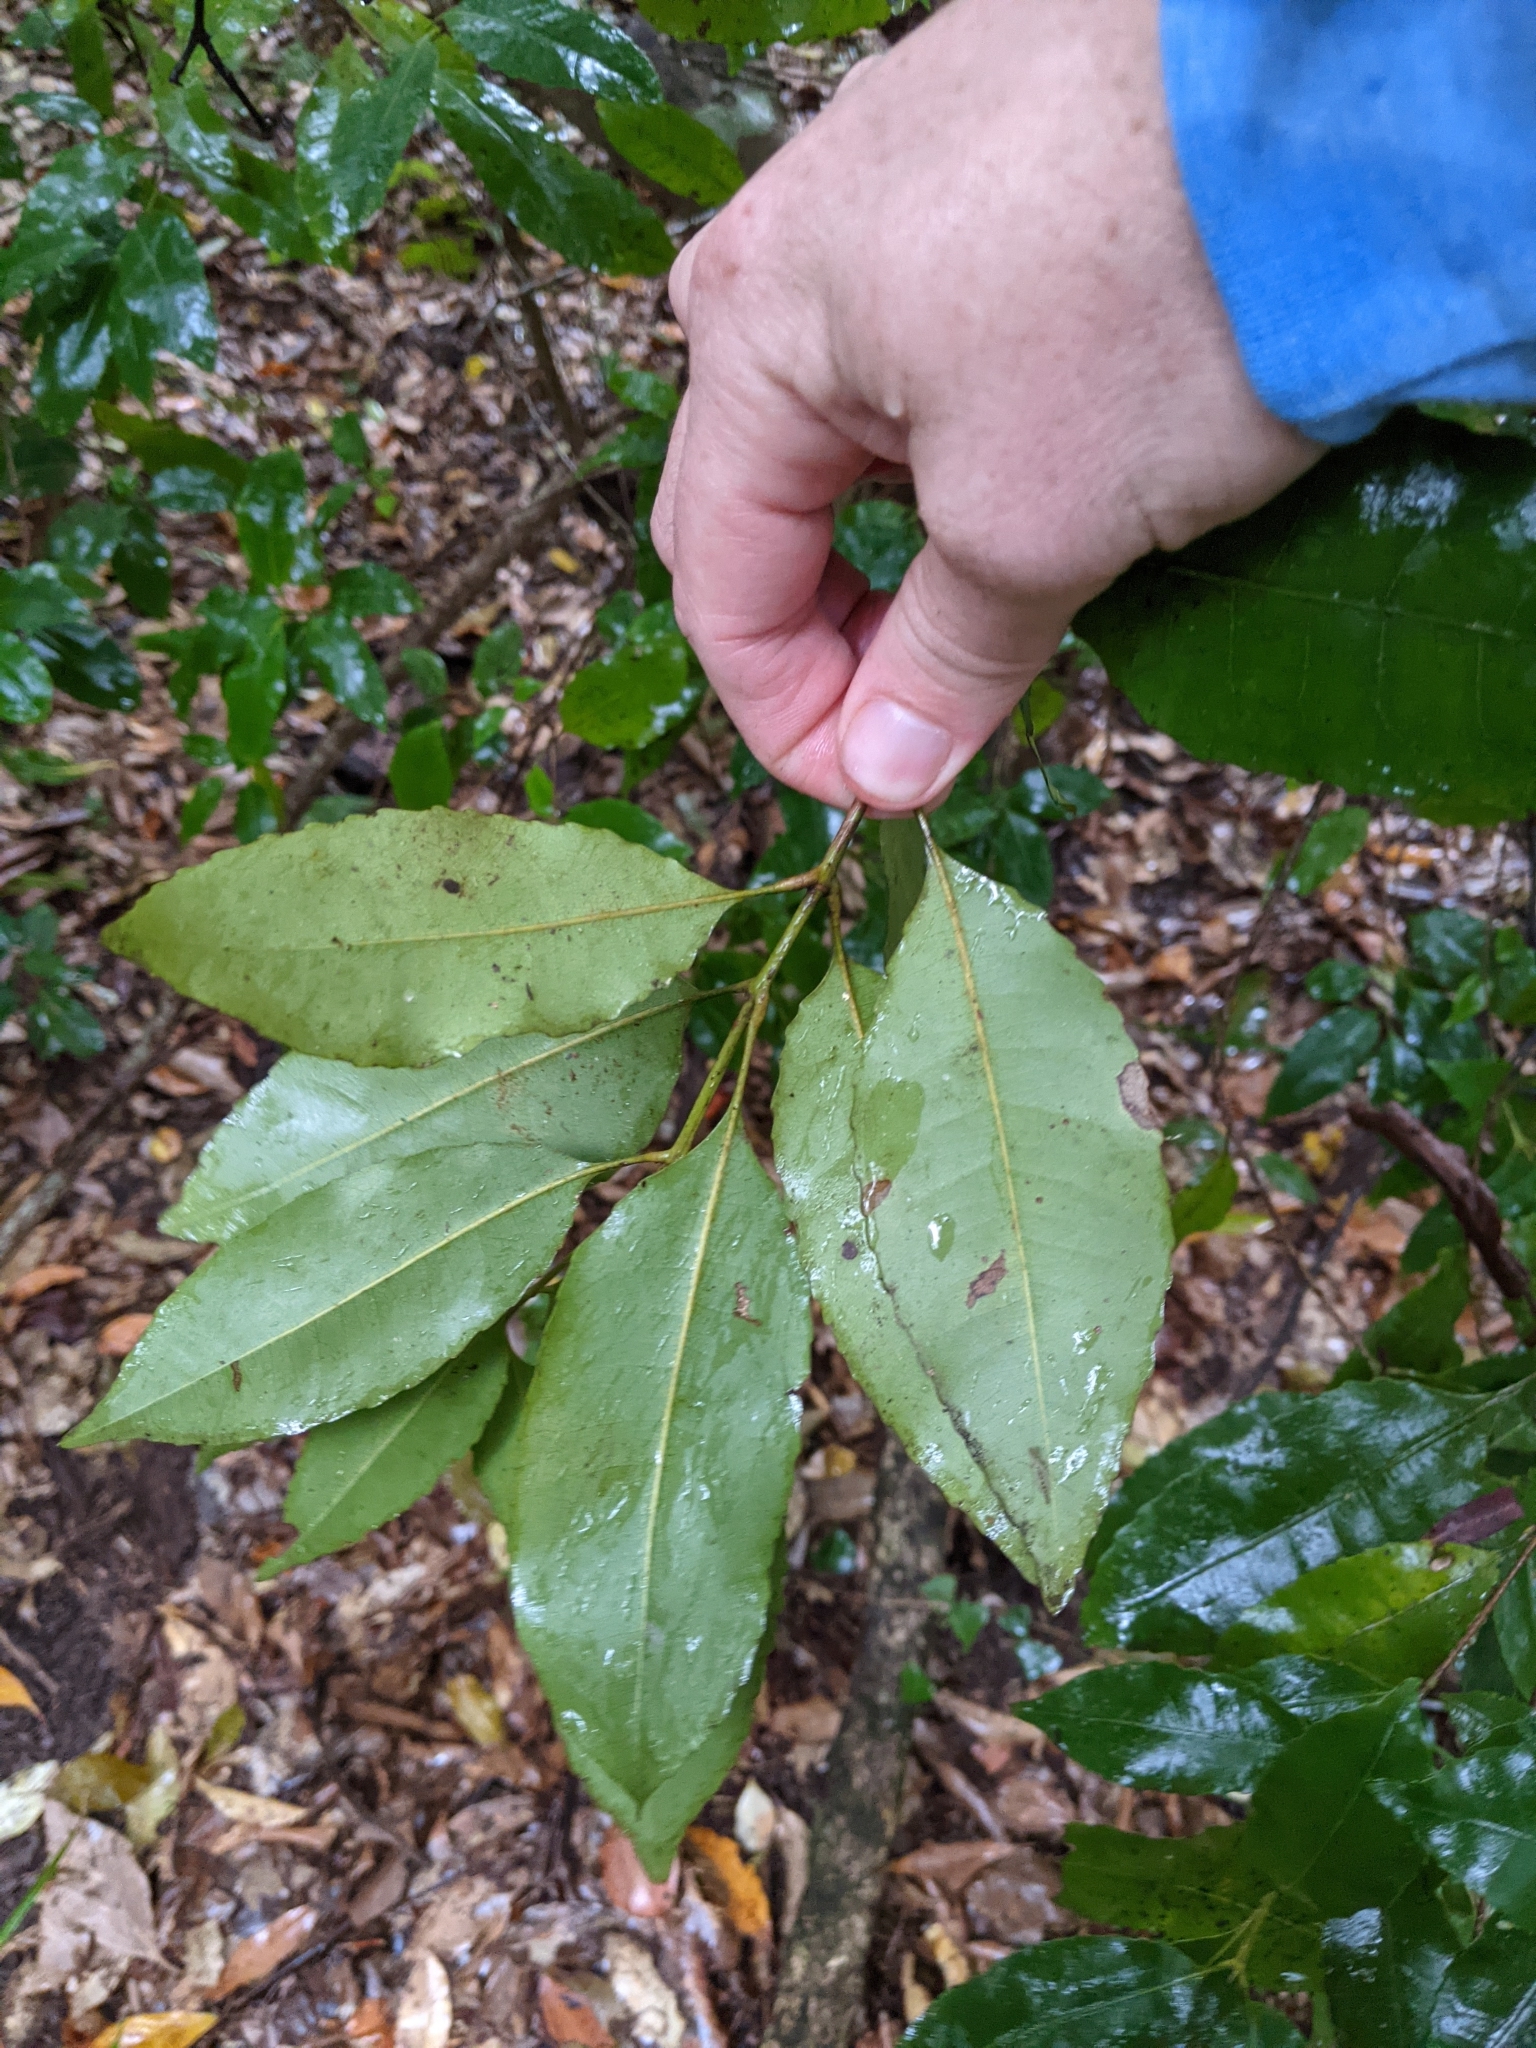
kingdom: Plantae
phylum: Tracheophyta
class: Magnoliopsida
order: Oxalidales
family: Cunoniaceae
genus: Schizomeria
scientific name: Schizomeria ovata
